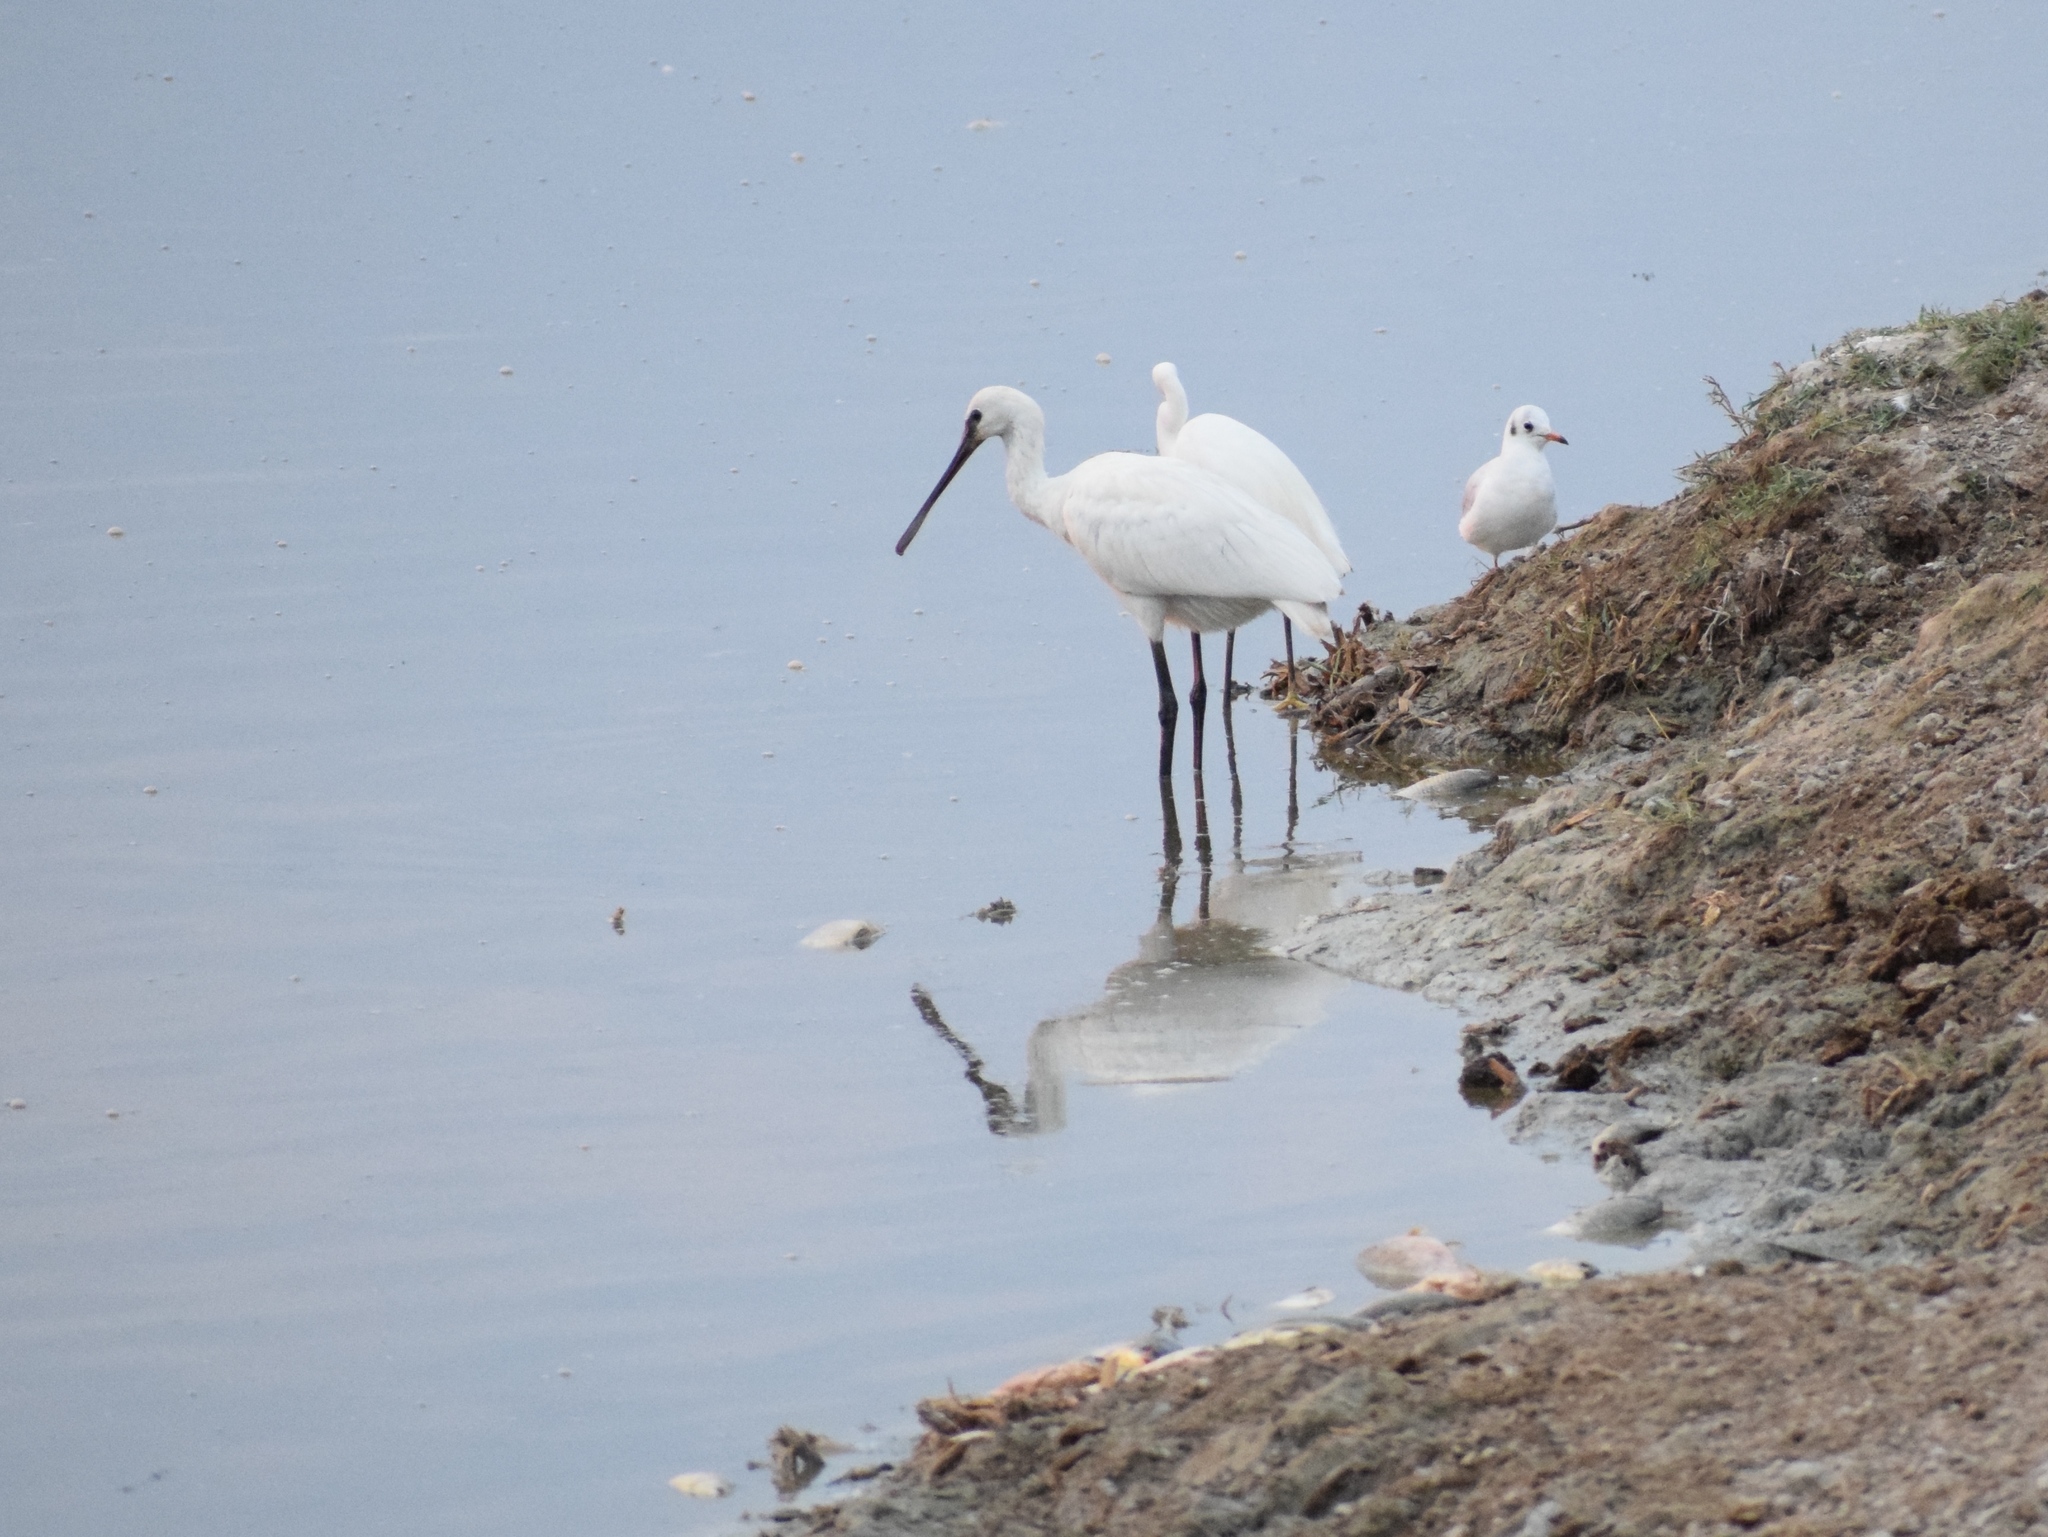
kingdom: Animalia
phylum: Chordata
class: Aves
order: Pelecaniformes
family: Threskiornithidae
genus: Platalea
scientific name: Platalea leucorodia
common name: Eurasian spoonbill
